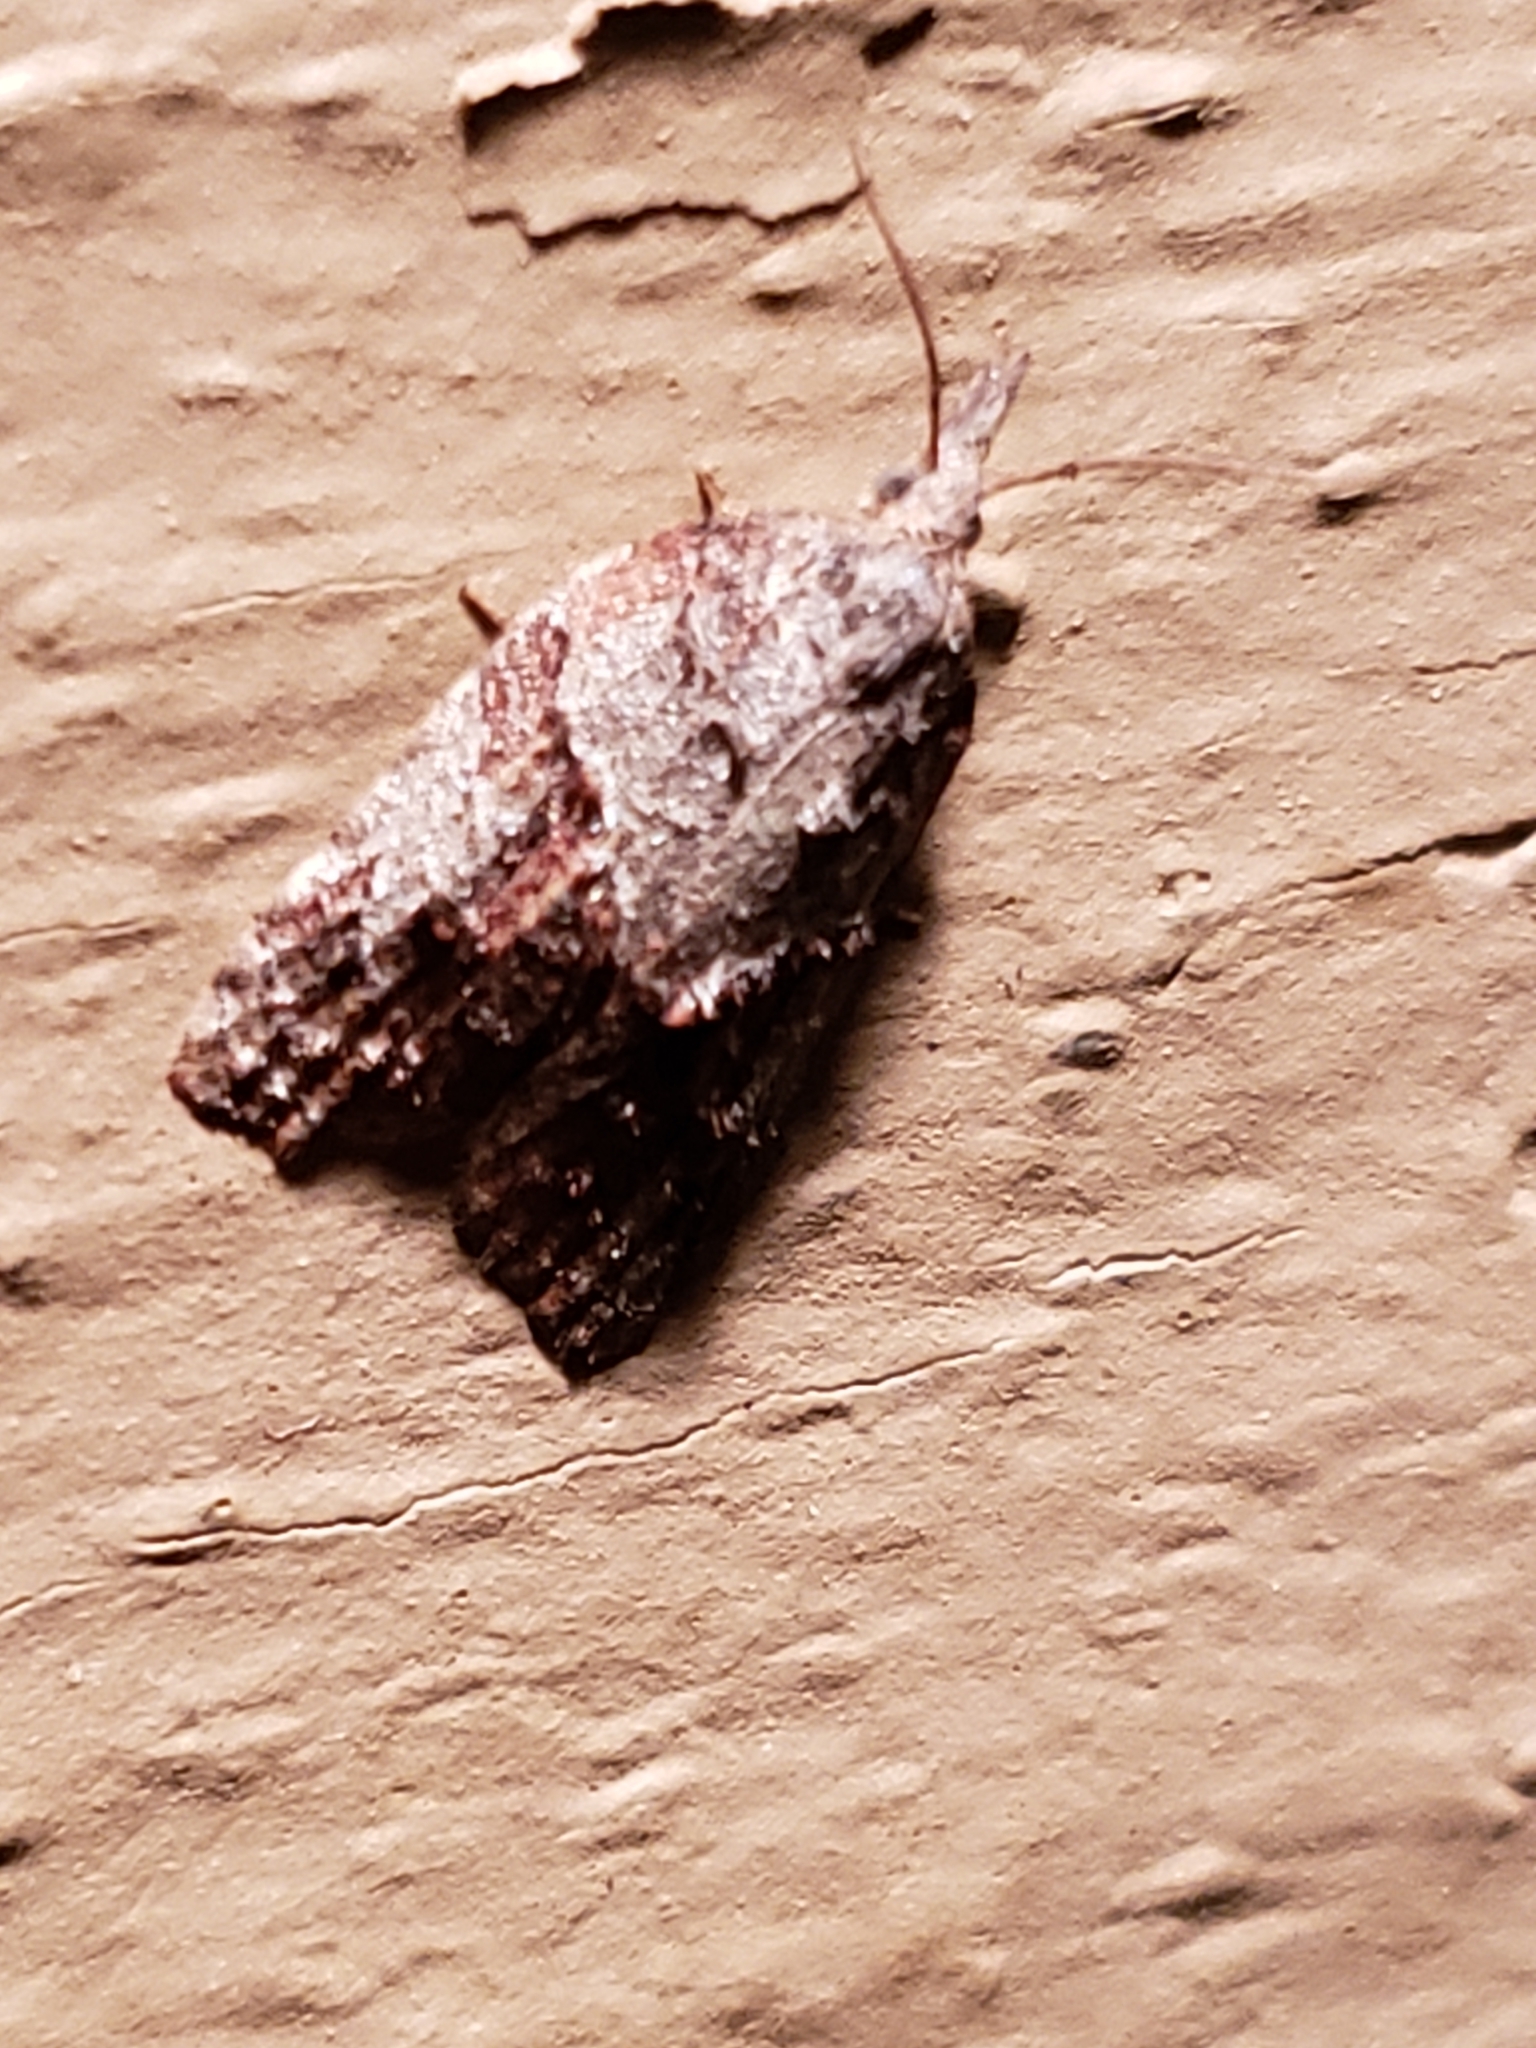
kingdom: Animalia
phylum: Arthropoda
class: Insecta
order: Lepidoptera
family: Tortricidae
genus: Platynota
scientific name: Platynota idaeusalis
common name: Tufted apple bud moth
